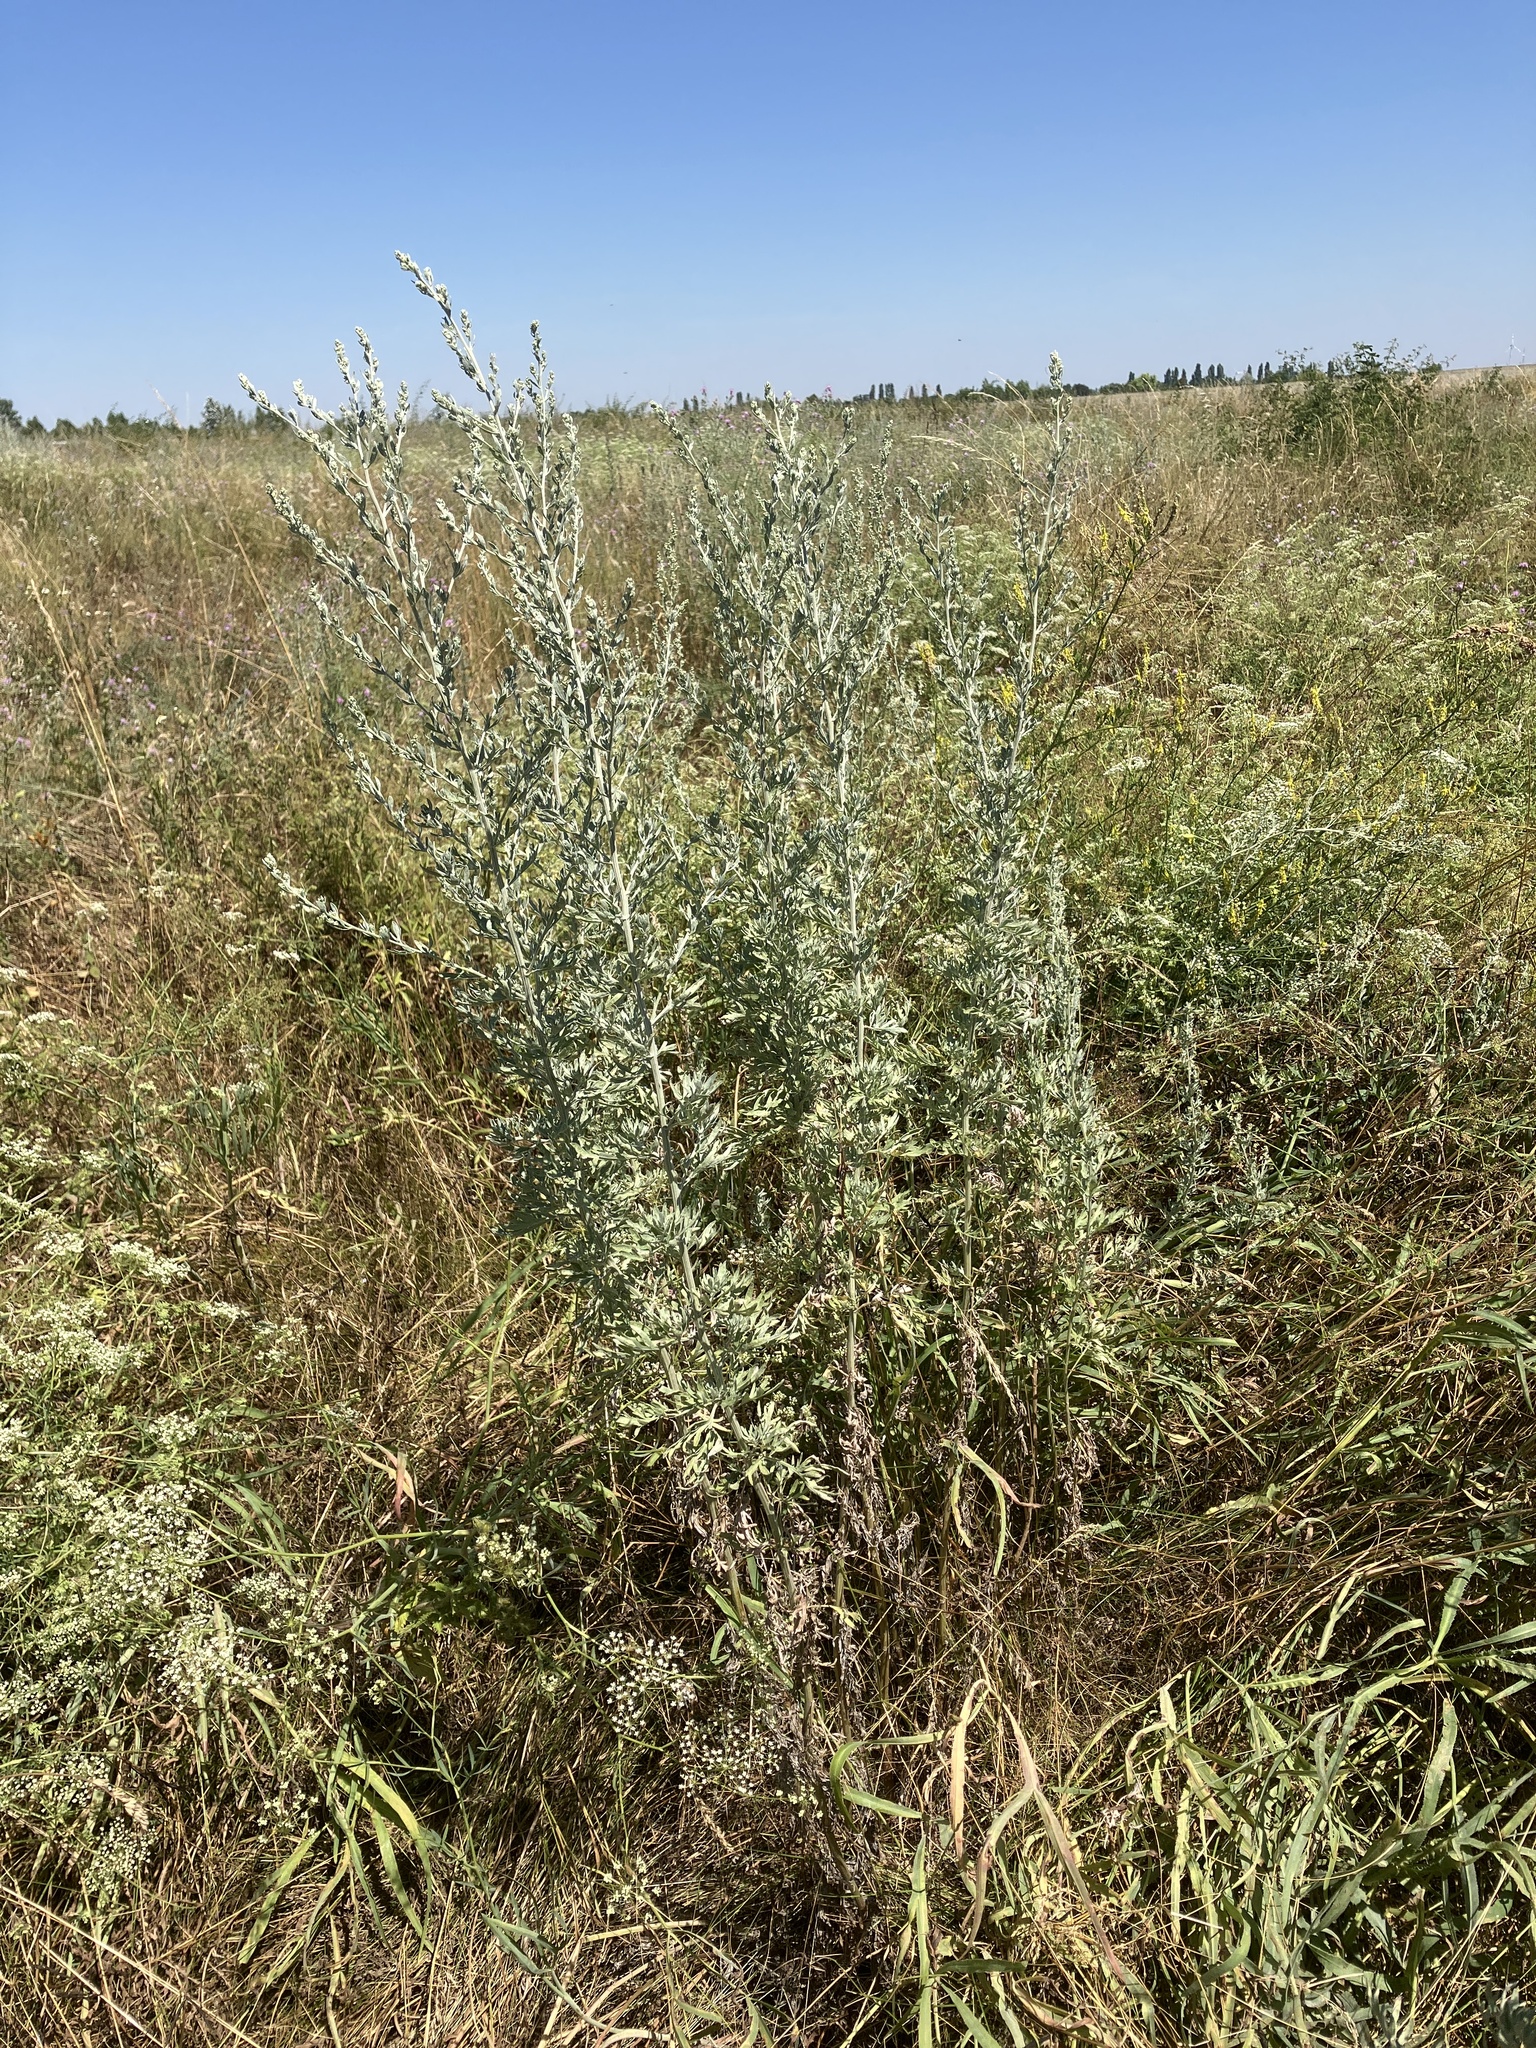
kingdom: Plantae
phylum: Tracheophyta
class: Magnoliopsida
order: Asterales
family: Asteraceae
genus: Artemisia
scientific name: Artemisia absinthium
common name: Wormwood
